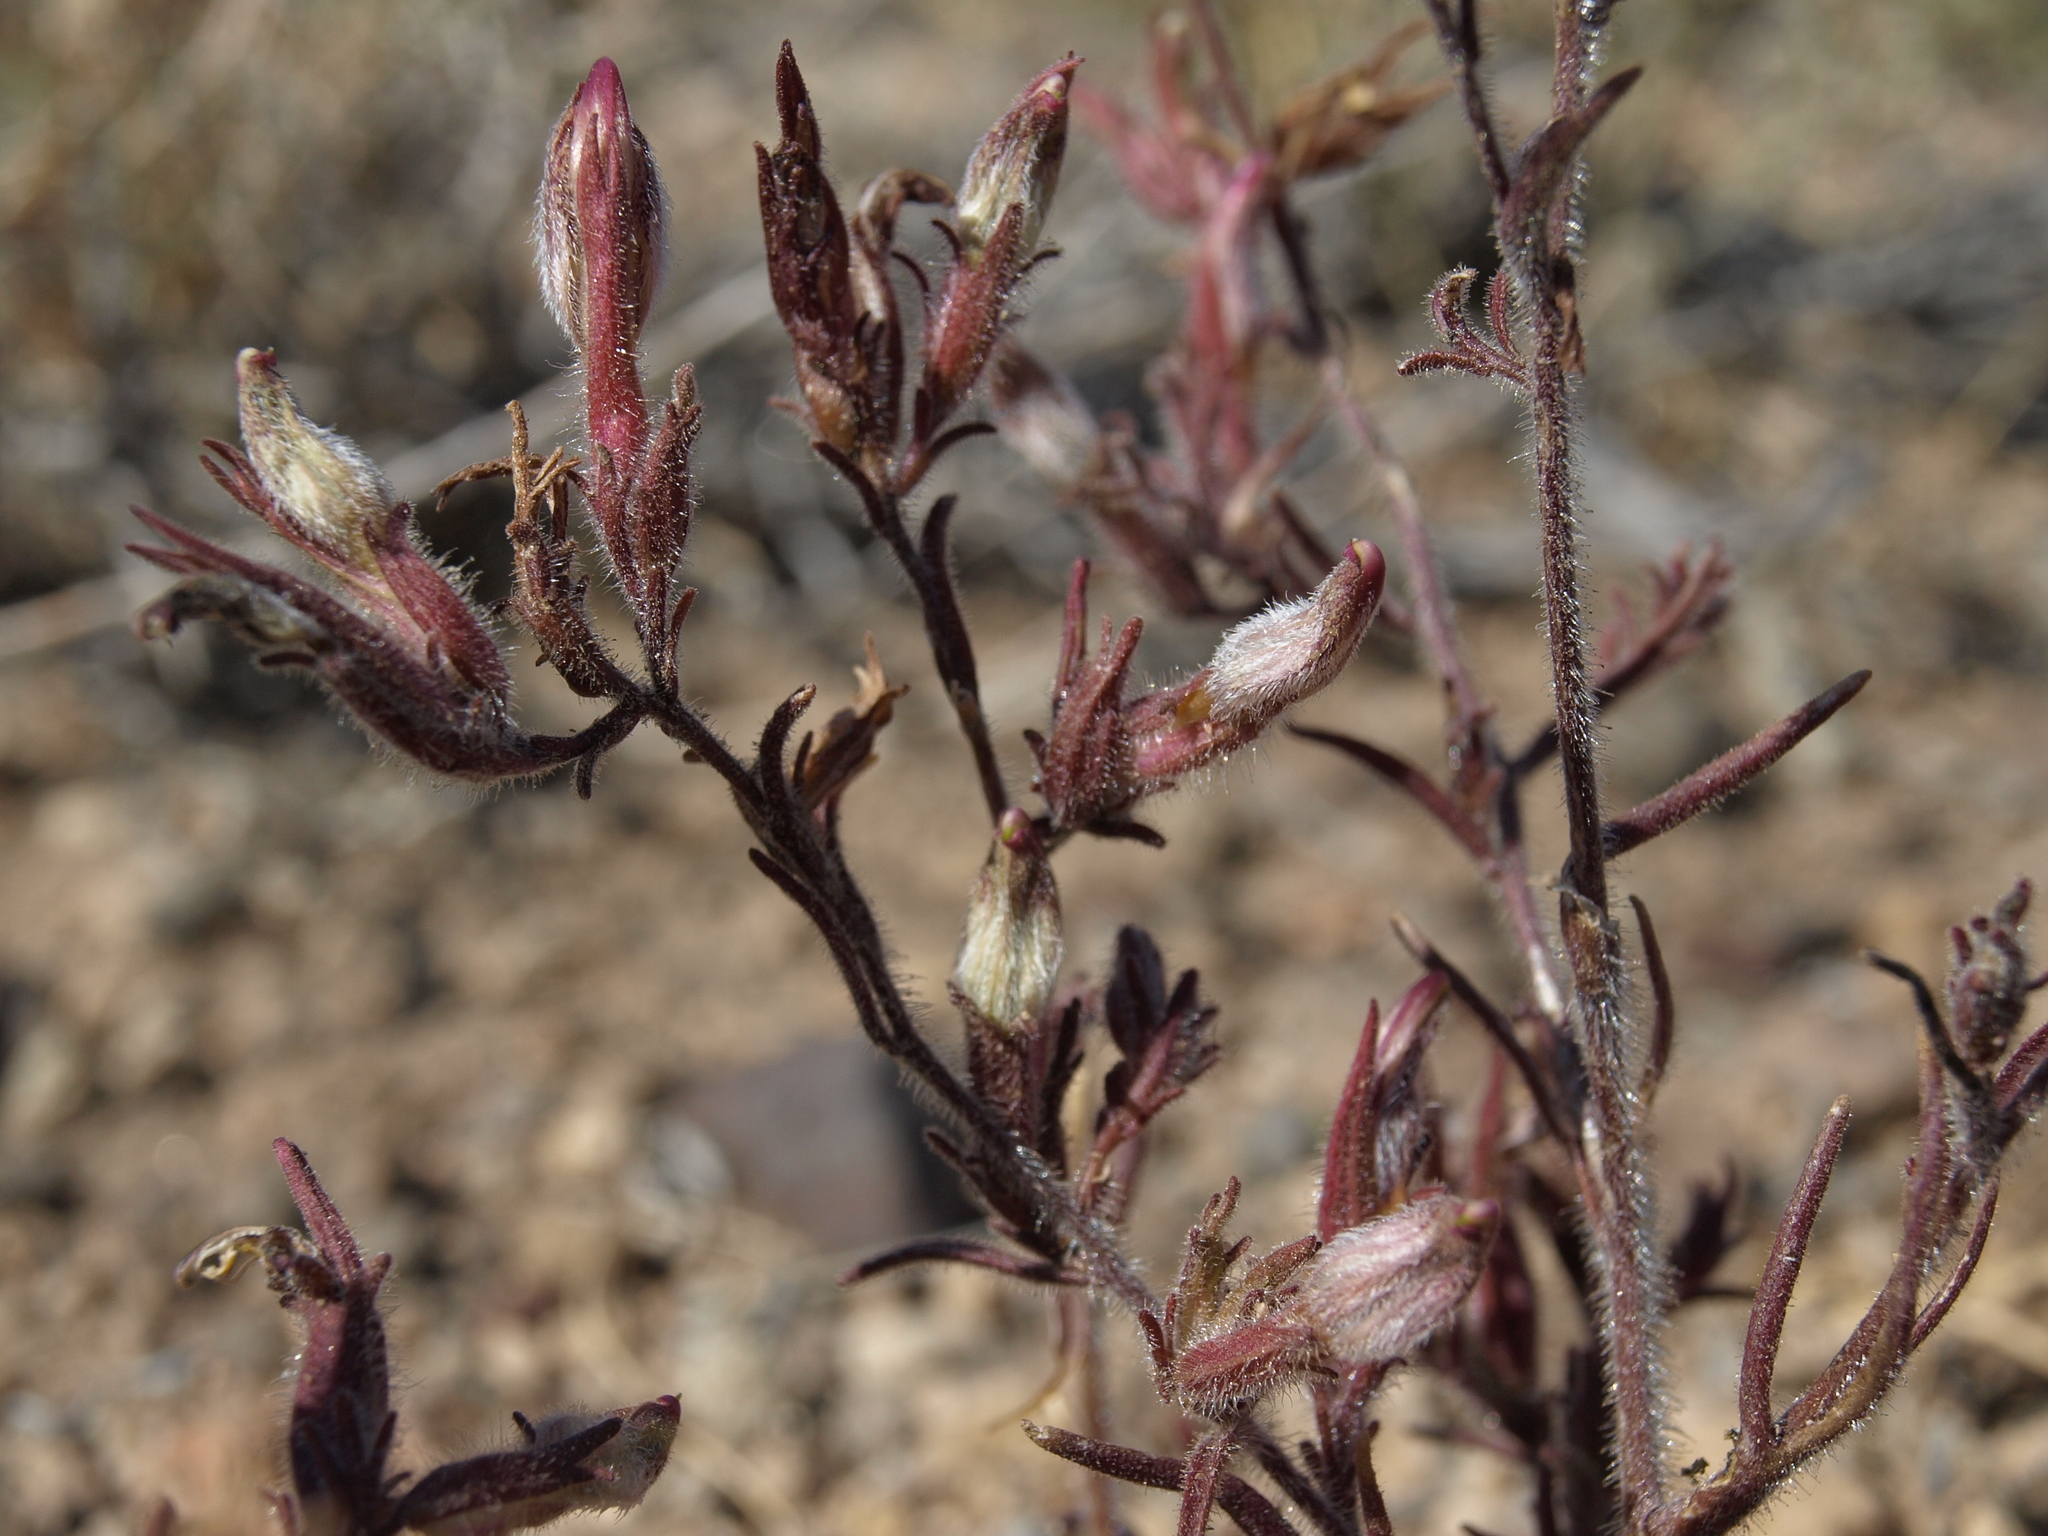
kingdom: Plantae
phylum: Tracheophyta
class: Magnoliopsida
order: Lamiales
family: Orobanchaceae
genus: Cordylanthus
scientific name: Cordylanthus kingii
